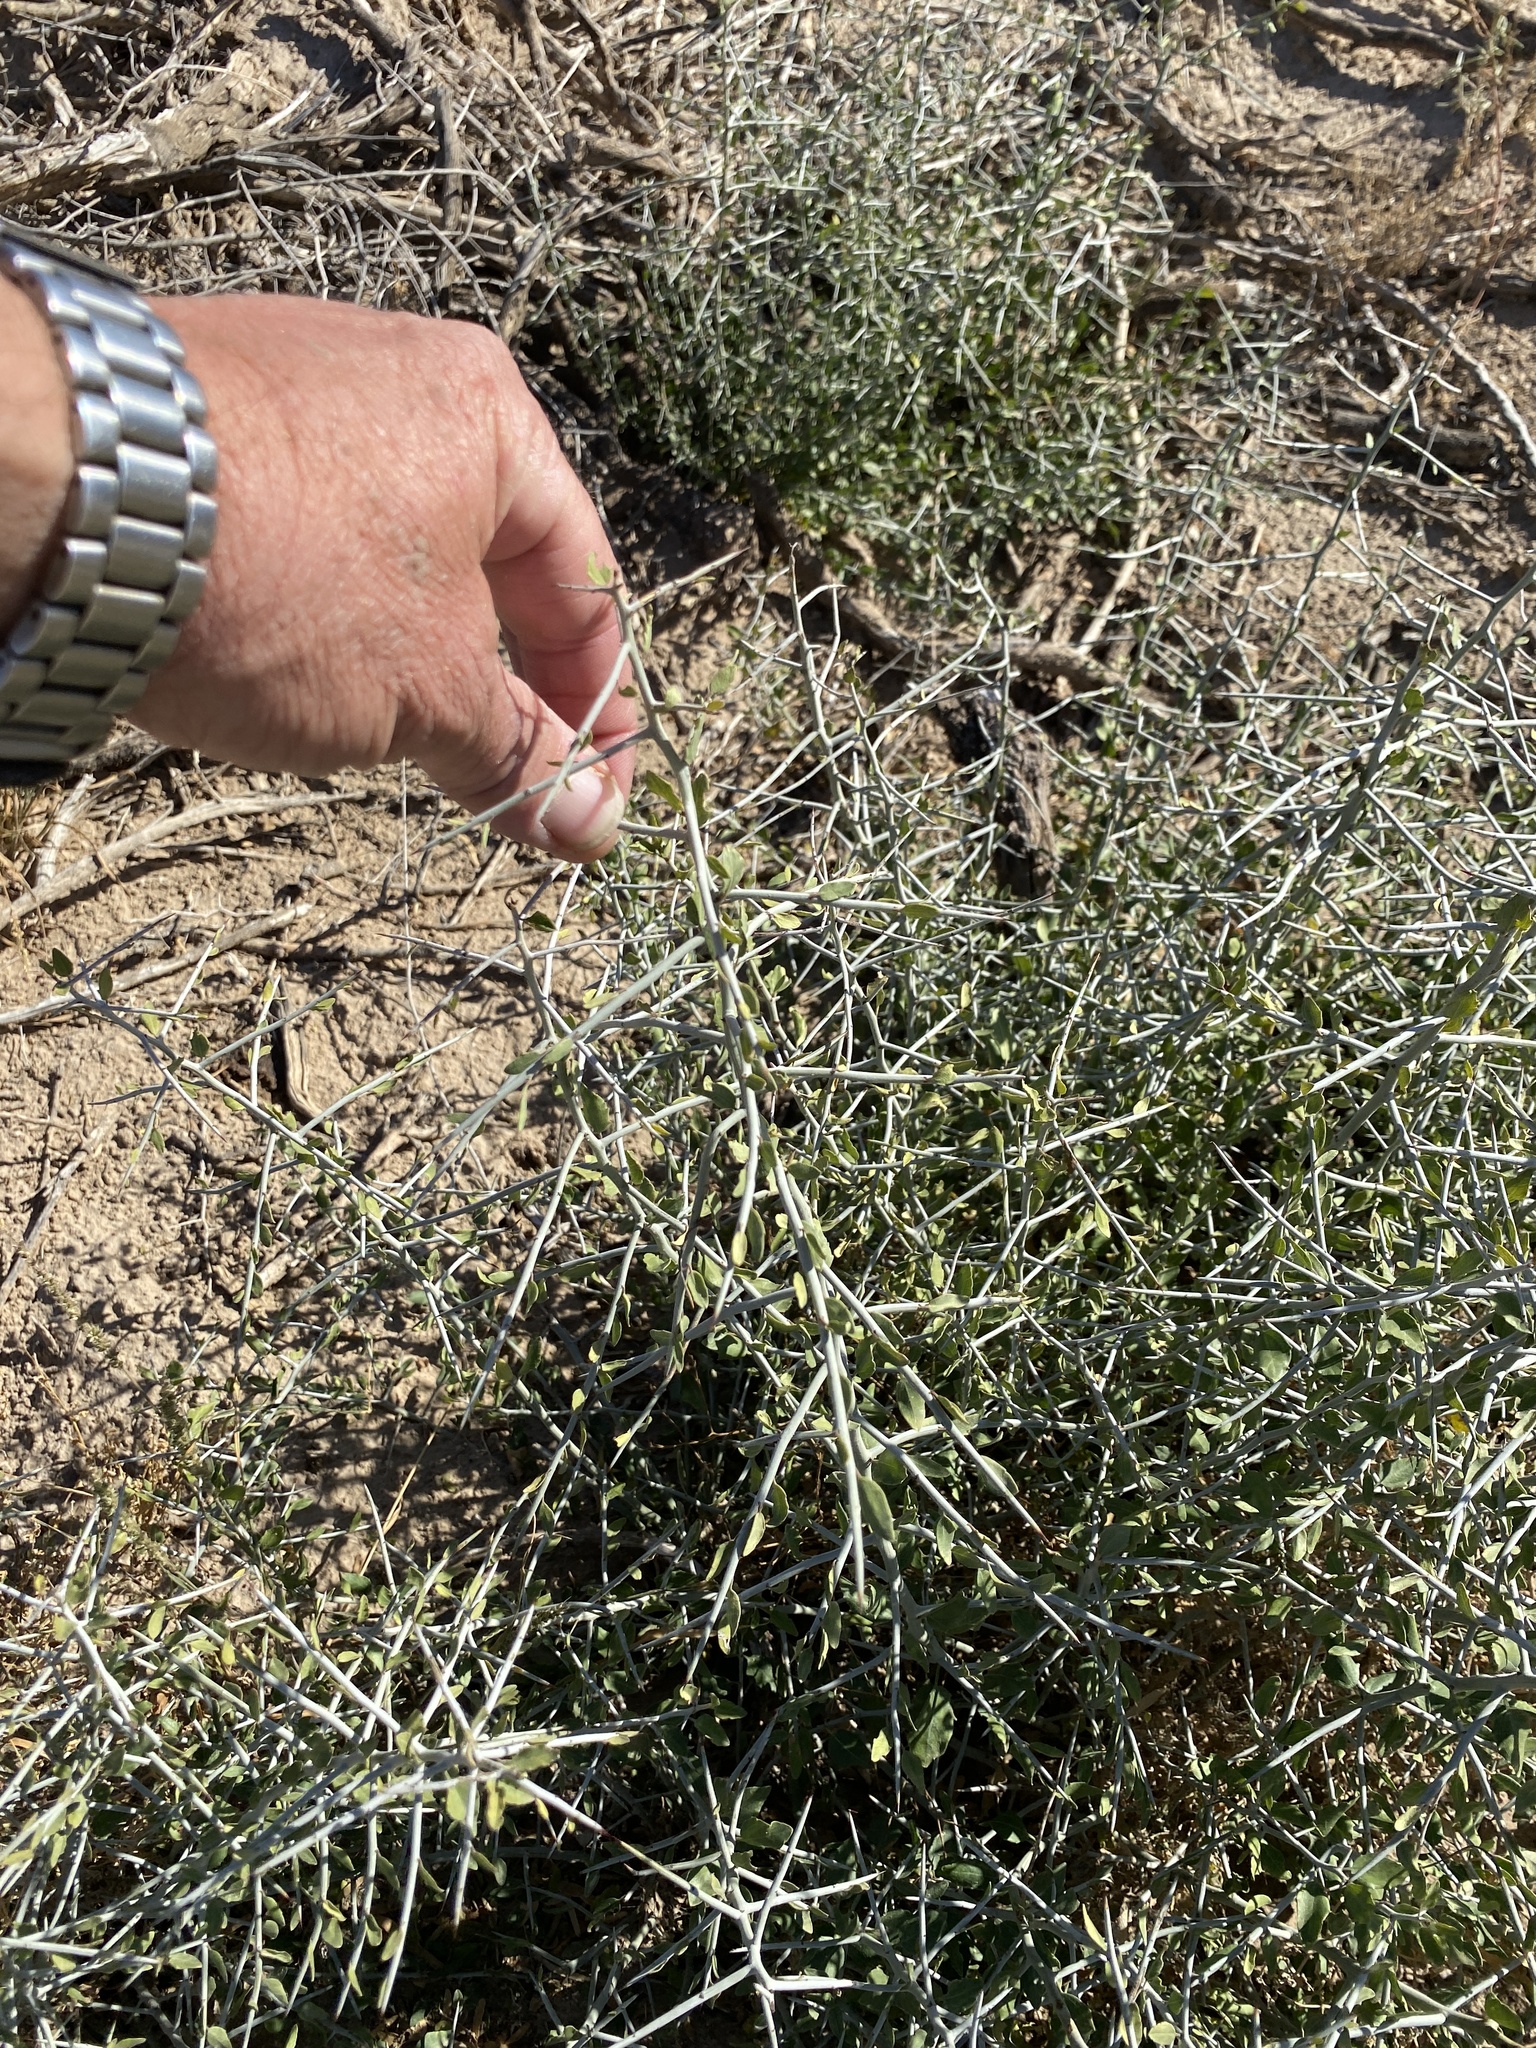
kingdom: Plantae
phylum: Tracheophyta
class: Magnoliopsida
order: Rosales
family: Rhamnaceae
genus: Sarcomphalus
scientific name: Sarcomphalus obtusifolius
